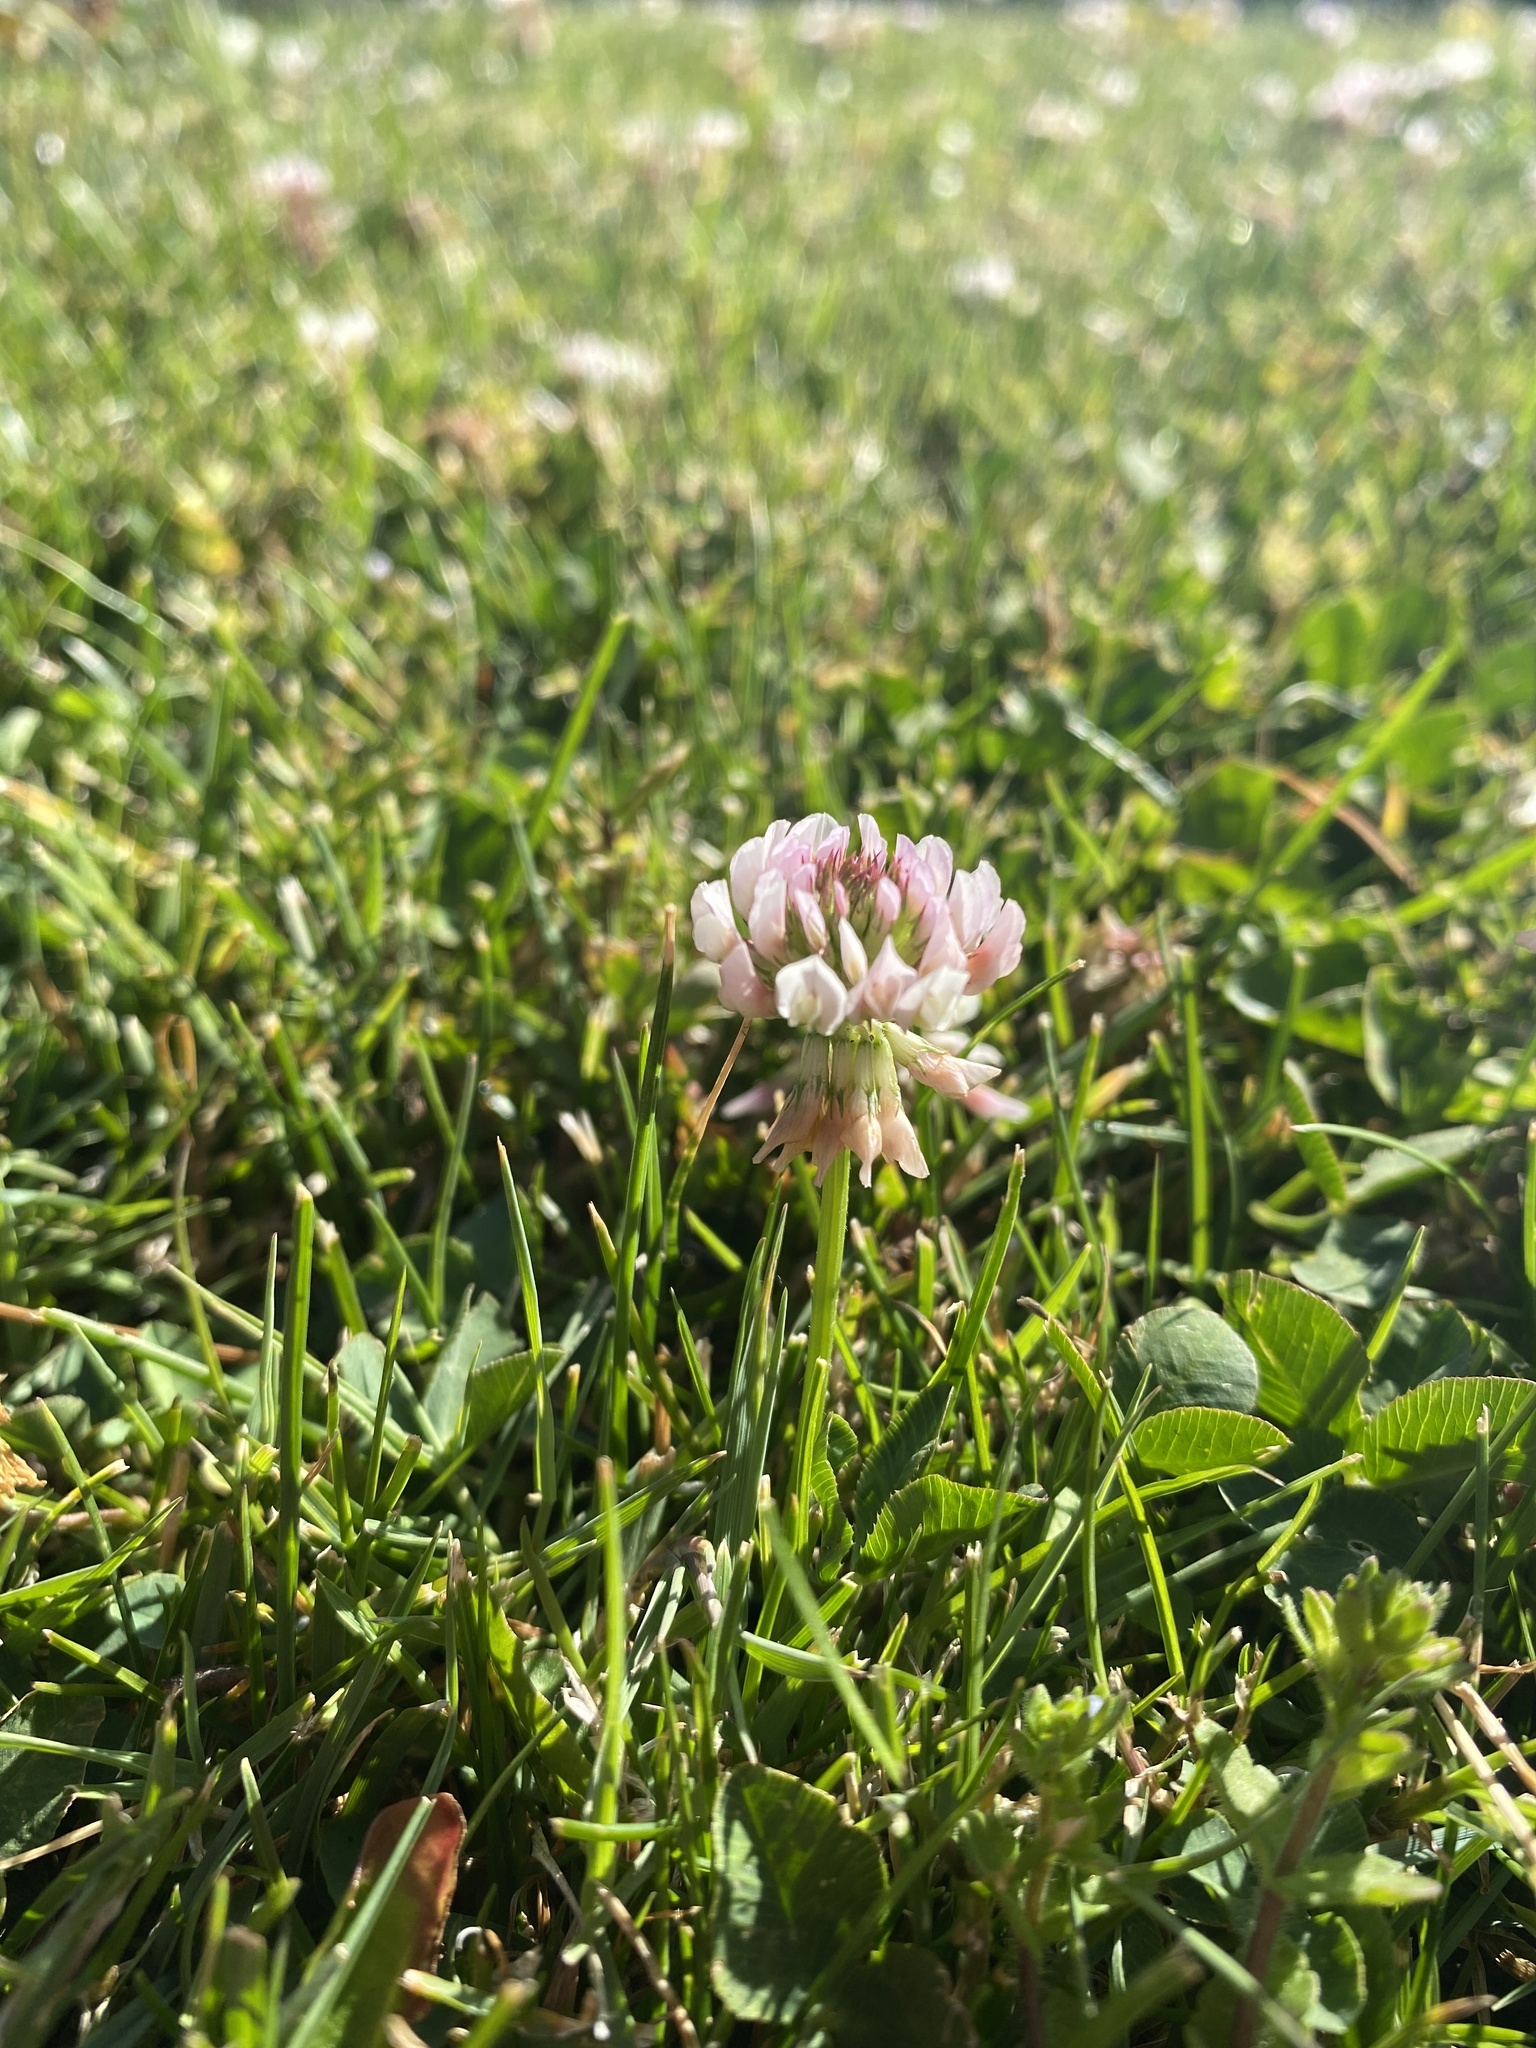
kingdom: Plantae
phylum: Tracheophyta
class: Magnoliopsida
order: Fabales
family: Fabaceae
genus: Trifolium
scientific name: Trifolium repens
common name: White clover
